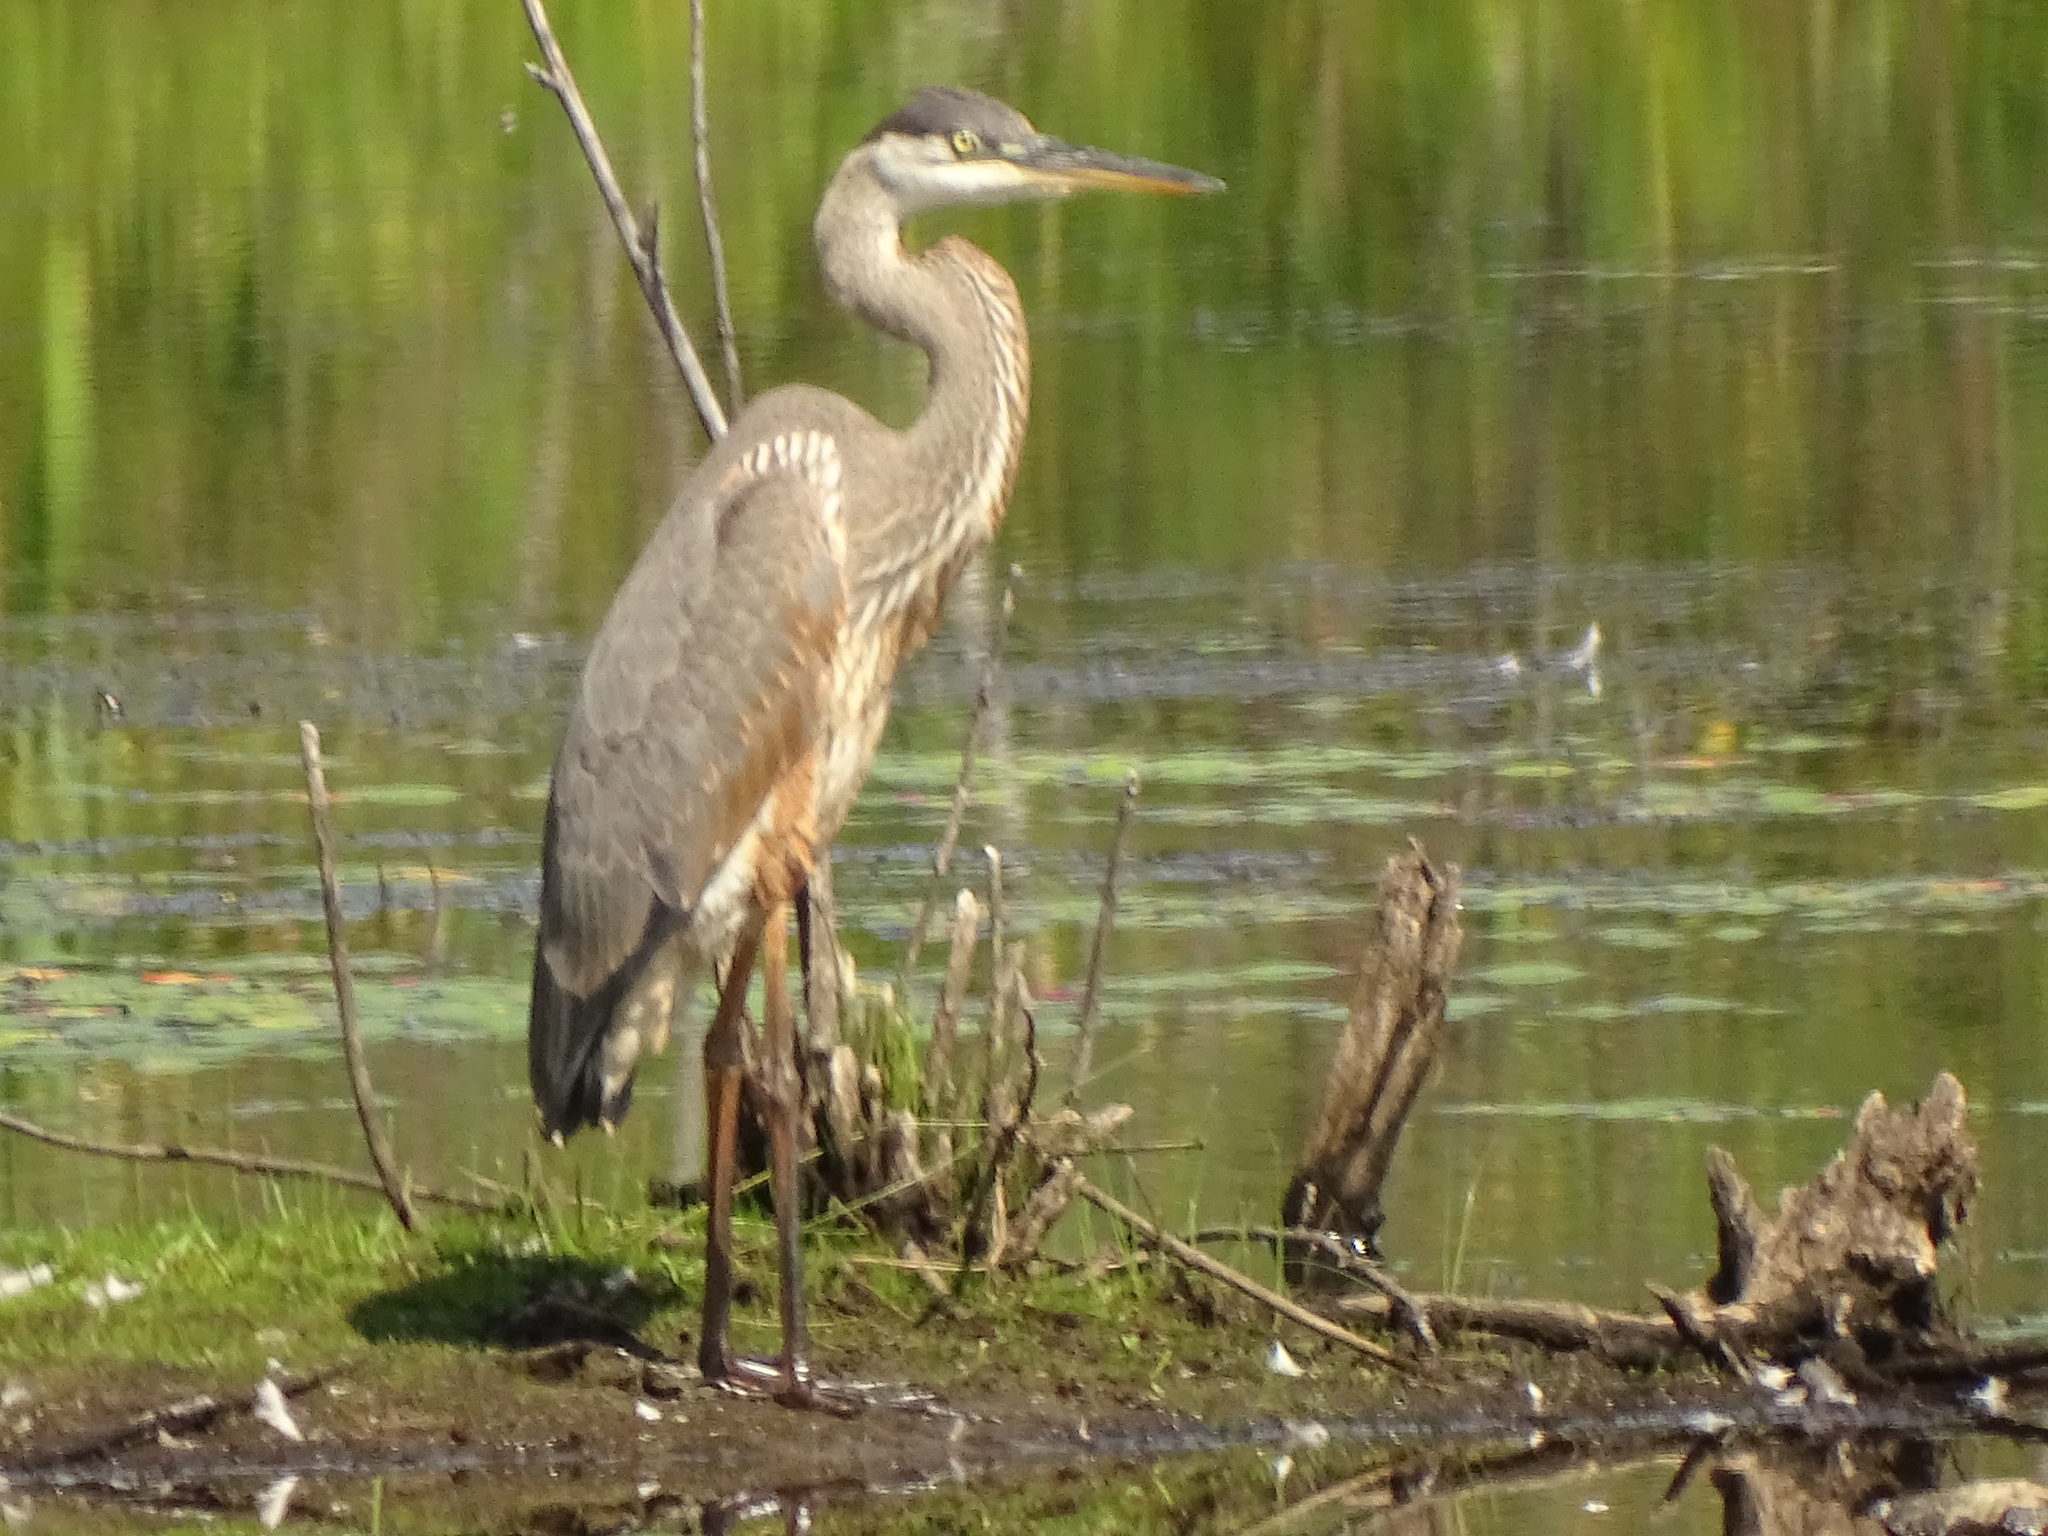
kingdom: Animalia
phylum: Chordata
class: Aves
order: Pelecaniformes
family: Ardeidae
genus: Ardea
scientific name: Ardea herodias
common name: Great blue heron
